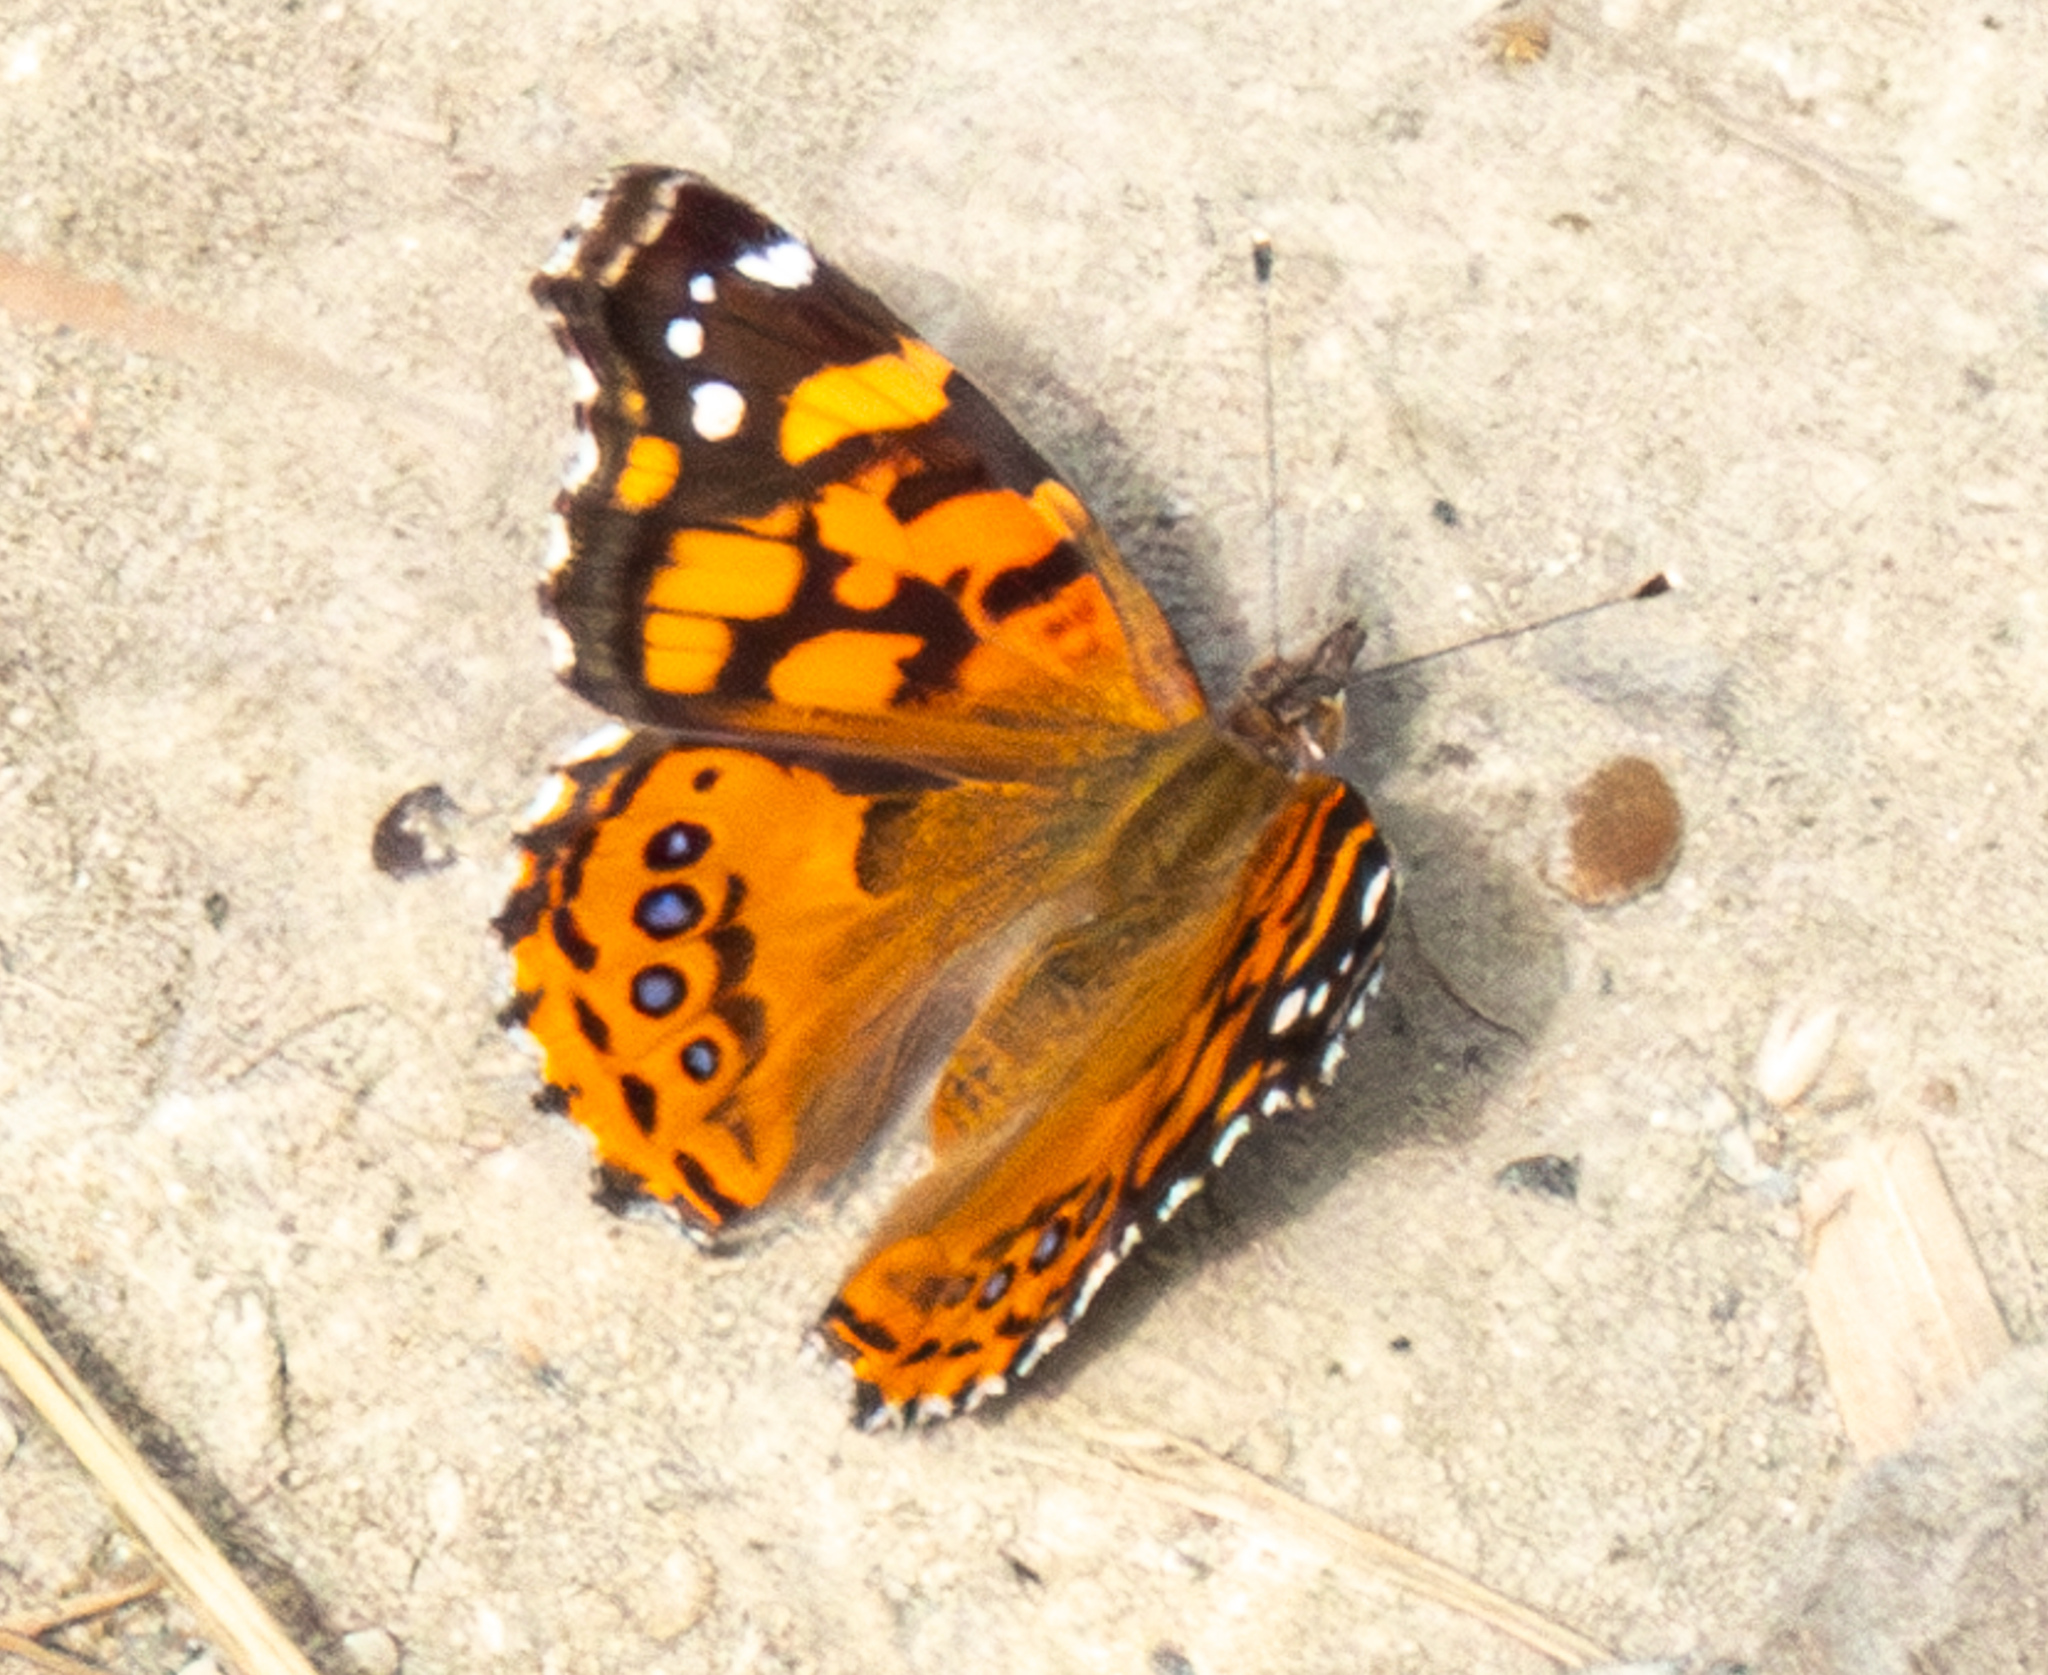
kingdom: Animalia
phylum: Arthropoda
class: Insecta
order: Lepidoptera
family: Nymphalidae
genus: Vanessa
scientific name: Vanessa annabella
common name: West coast lady
